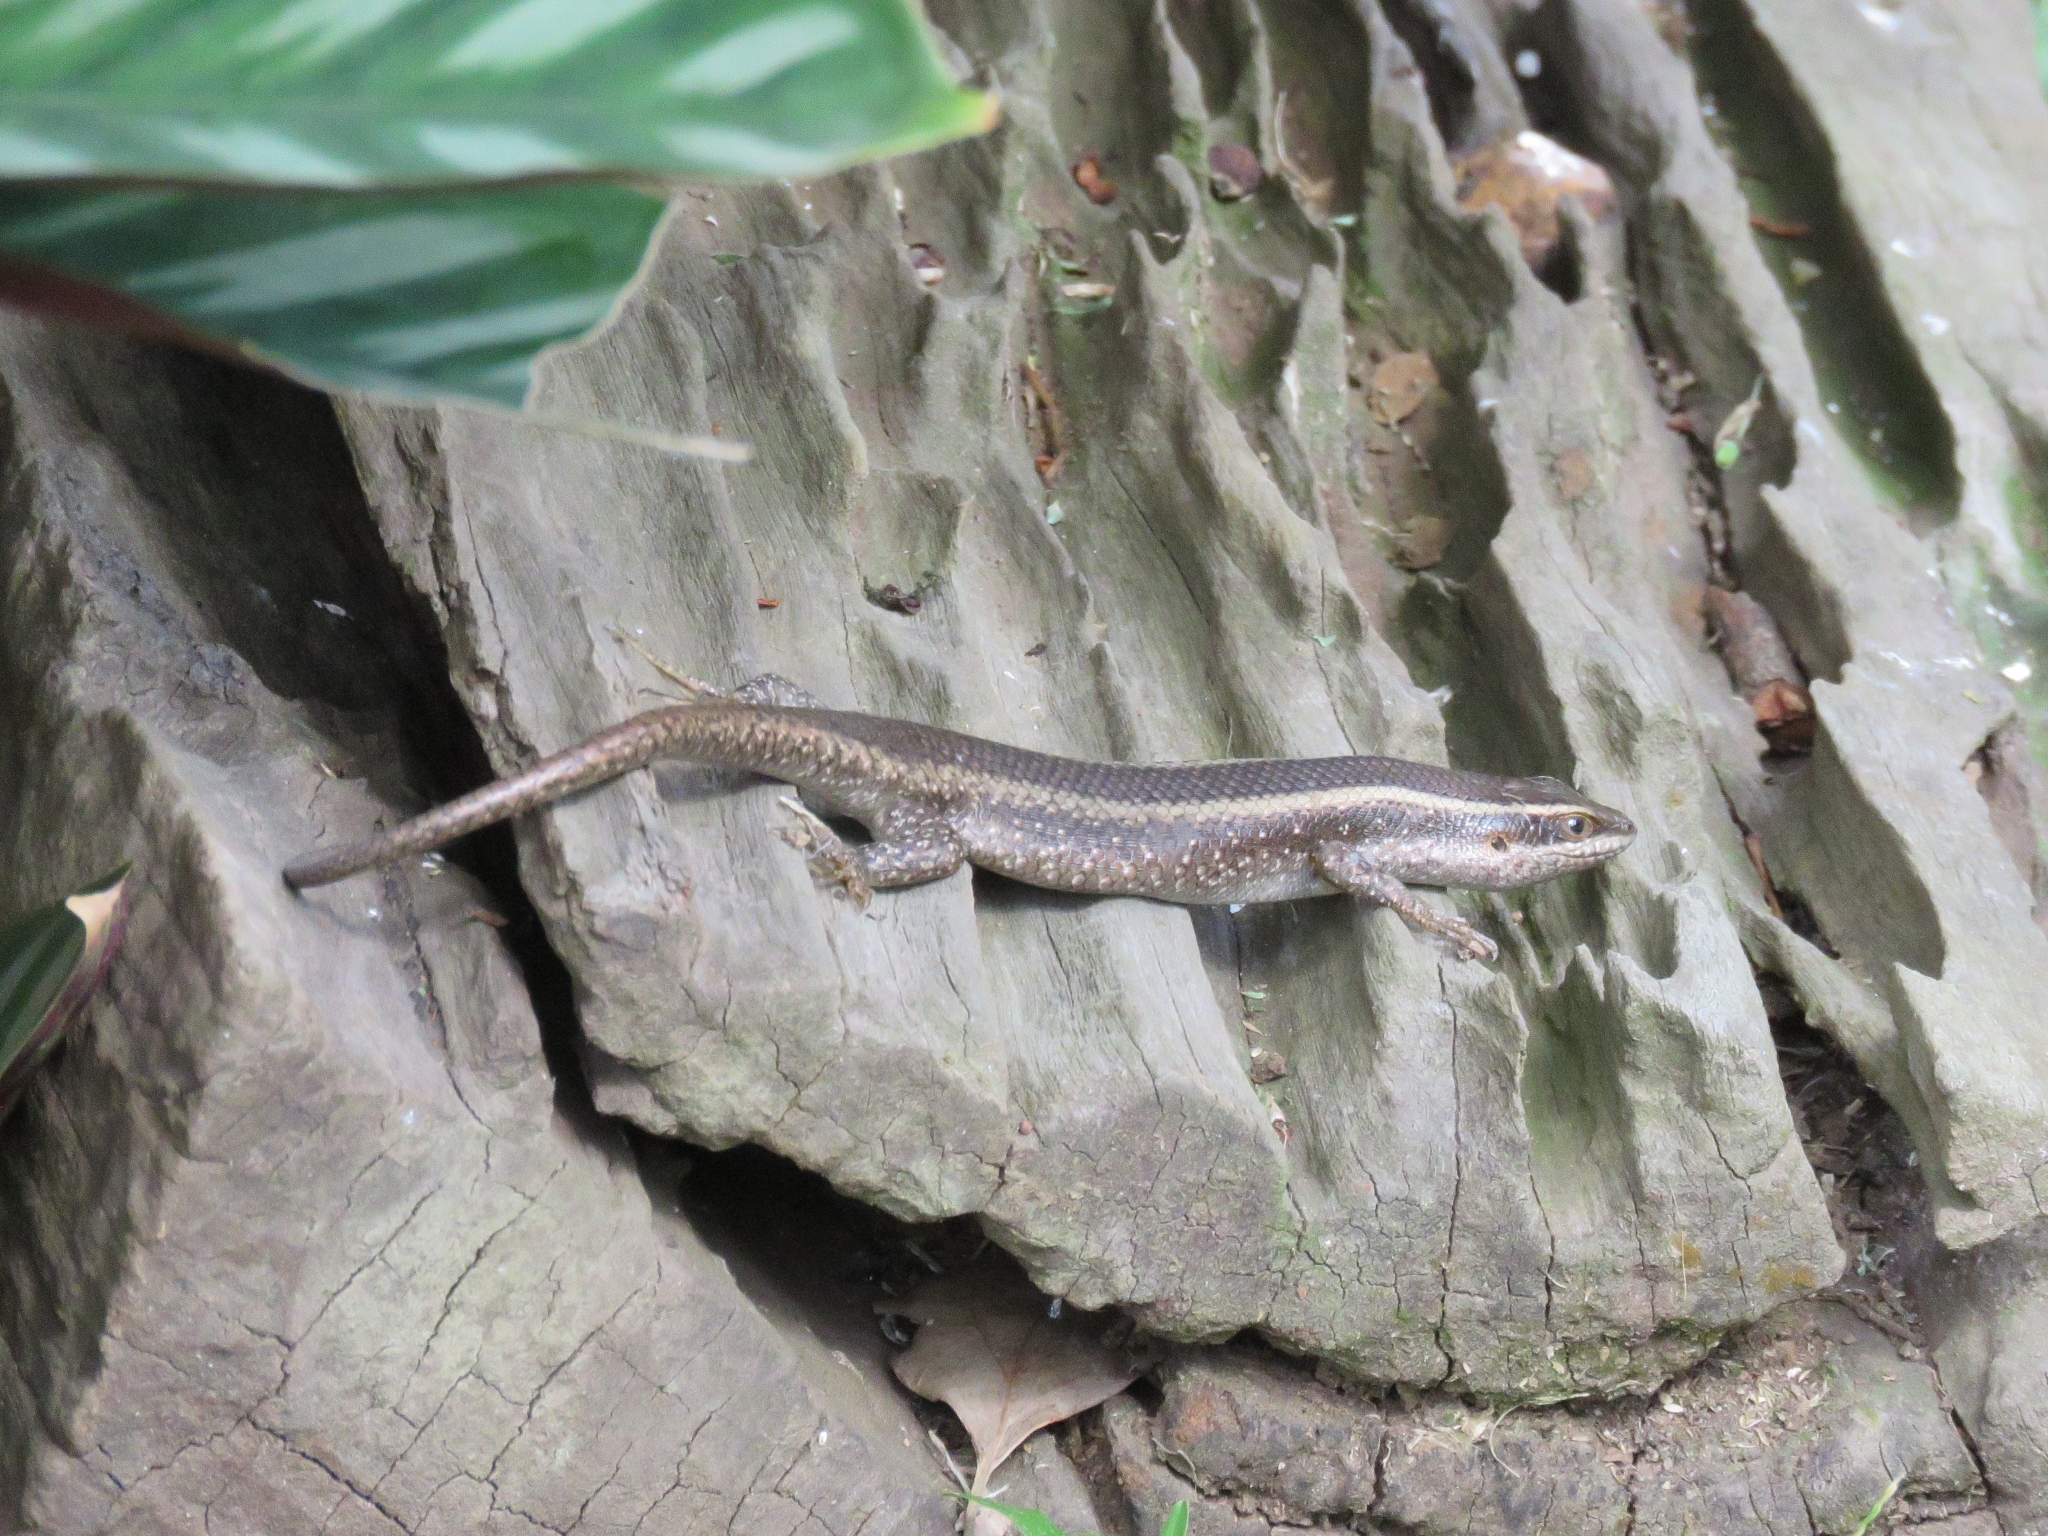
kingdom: Animalia
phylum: Chordata
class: Squamata
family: Scincidae
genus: Trachylepis
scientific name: Trachylepis striata
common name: African striped mabuya
